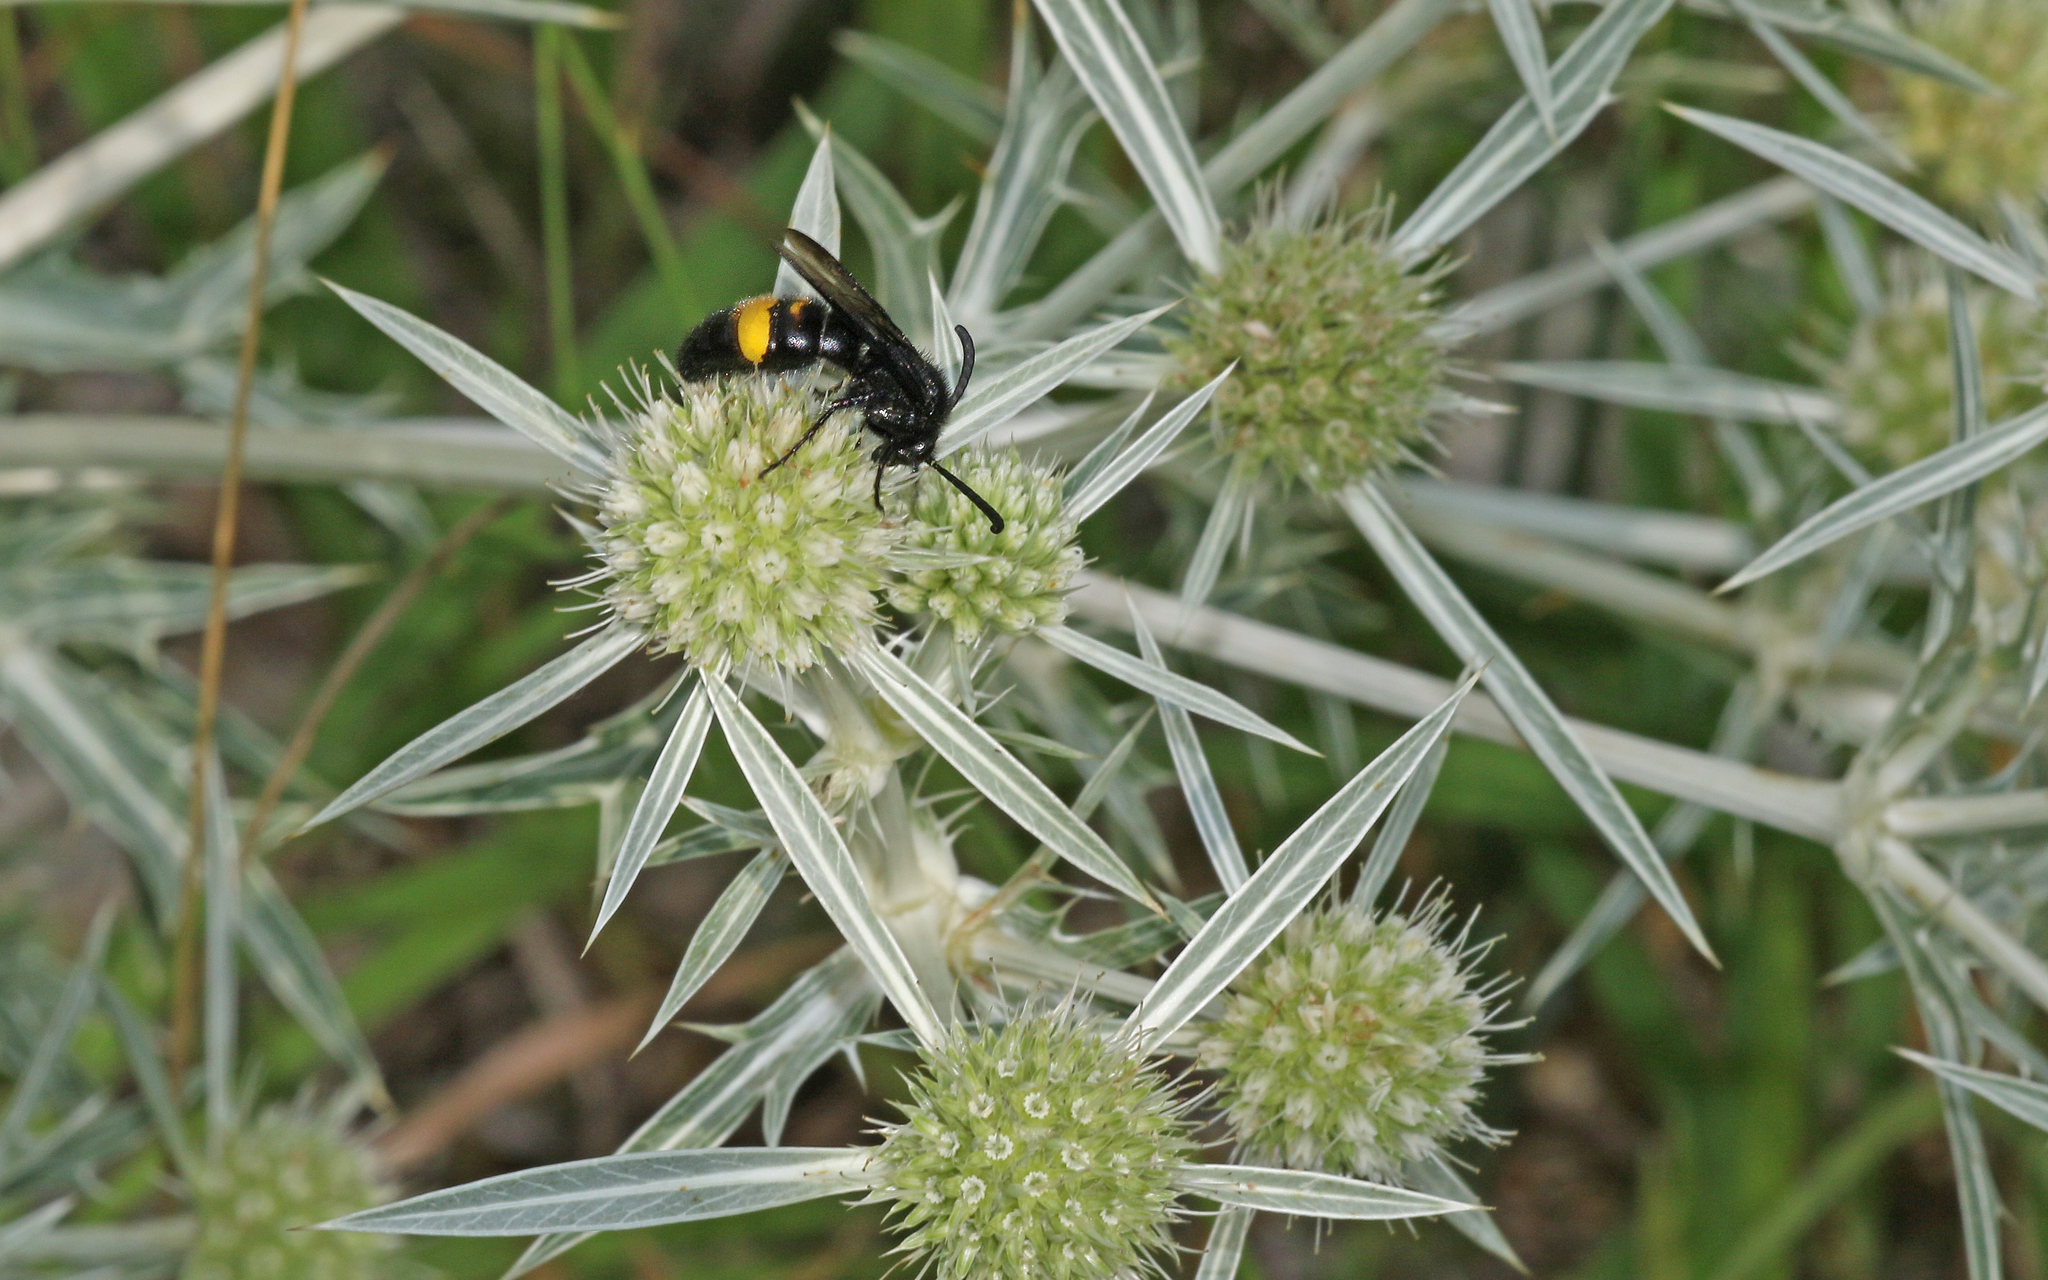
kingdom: Animalia
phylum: Arthropoda
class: Insecta
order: Hymenoptera
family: Scoliidae
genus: Scolia
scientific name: Scolia hirta
